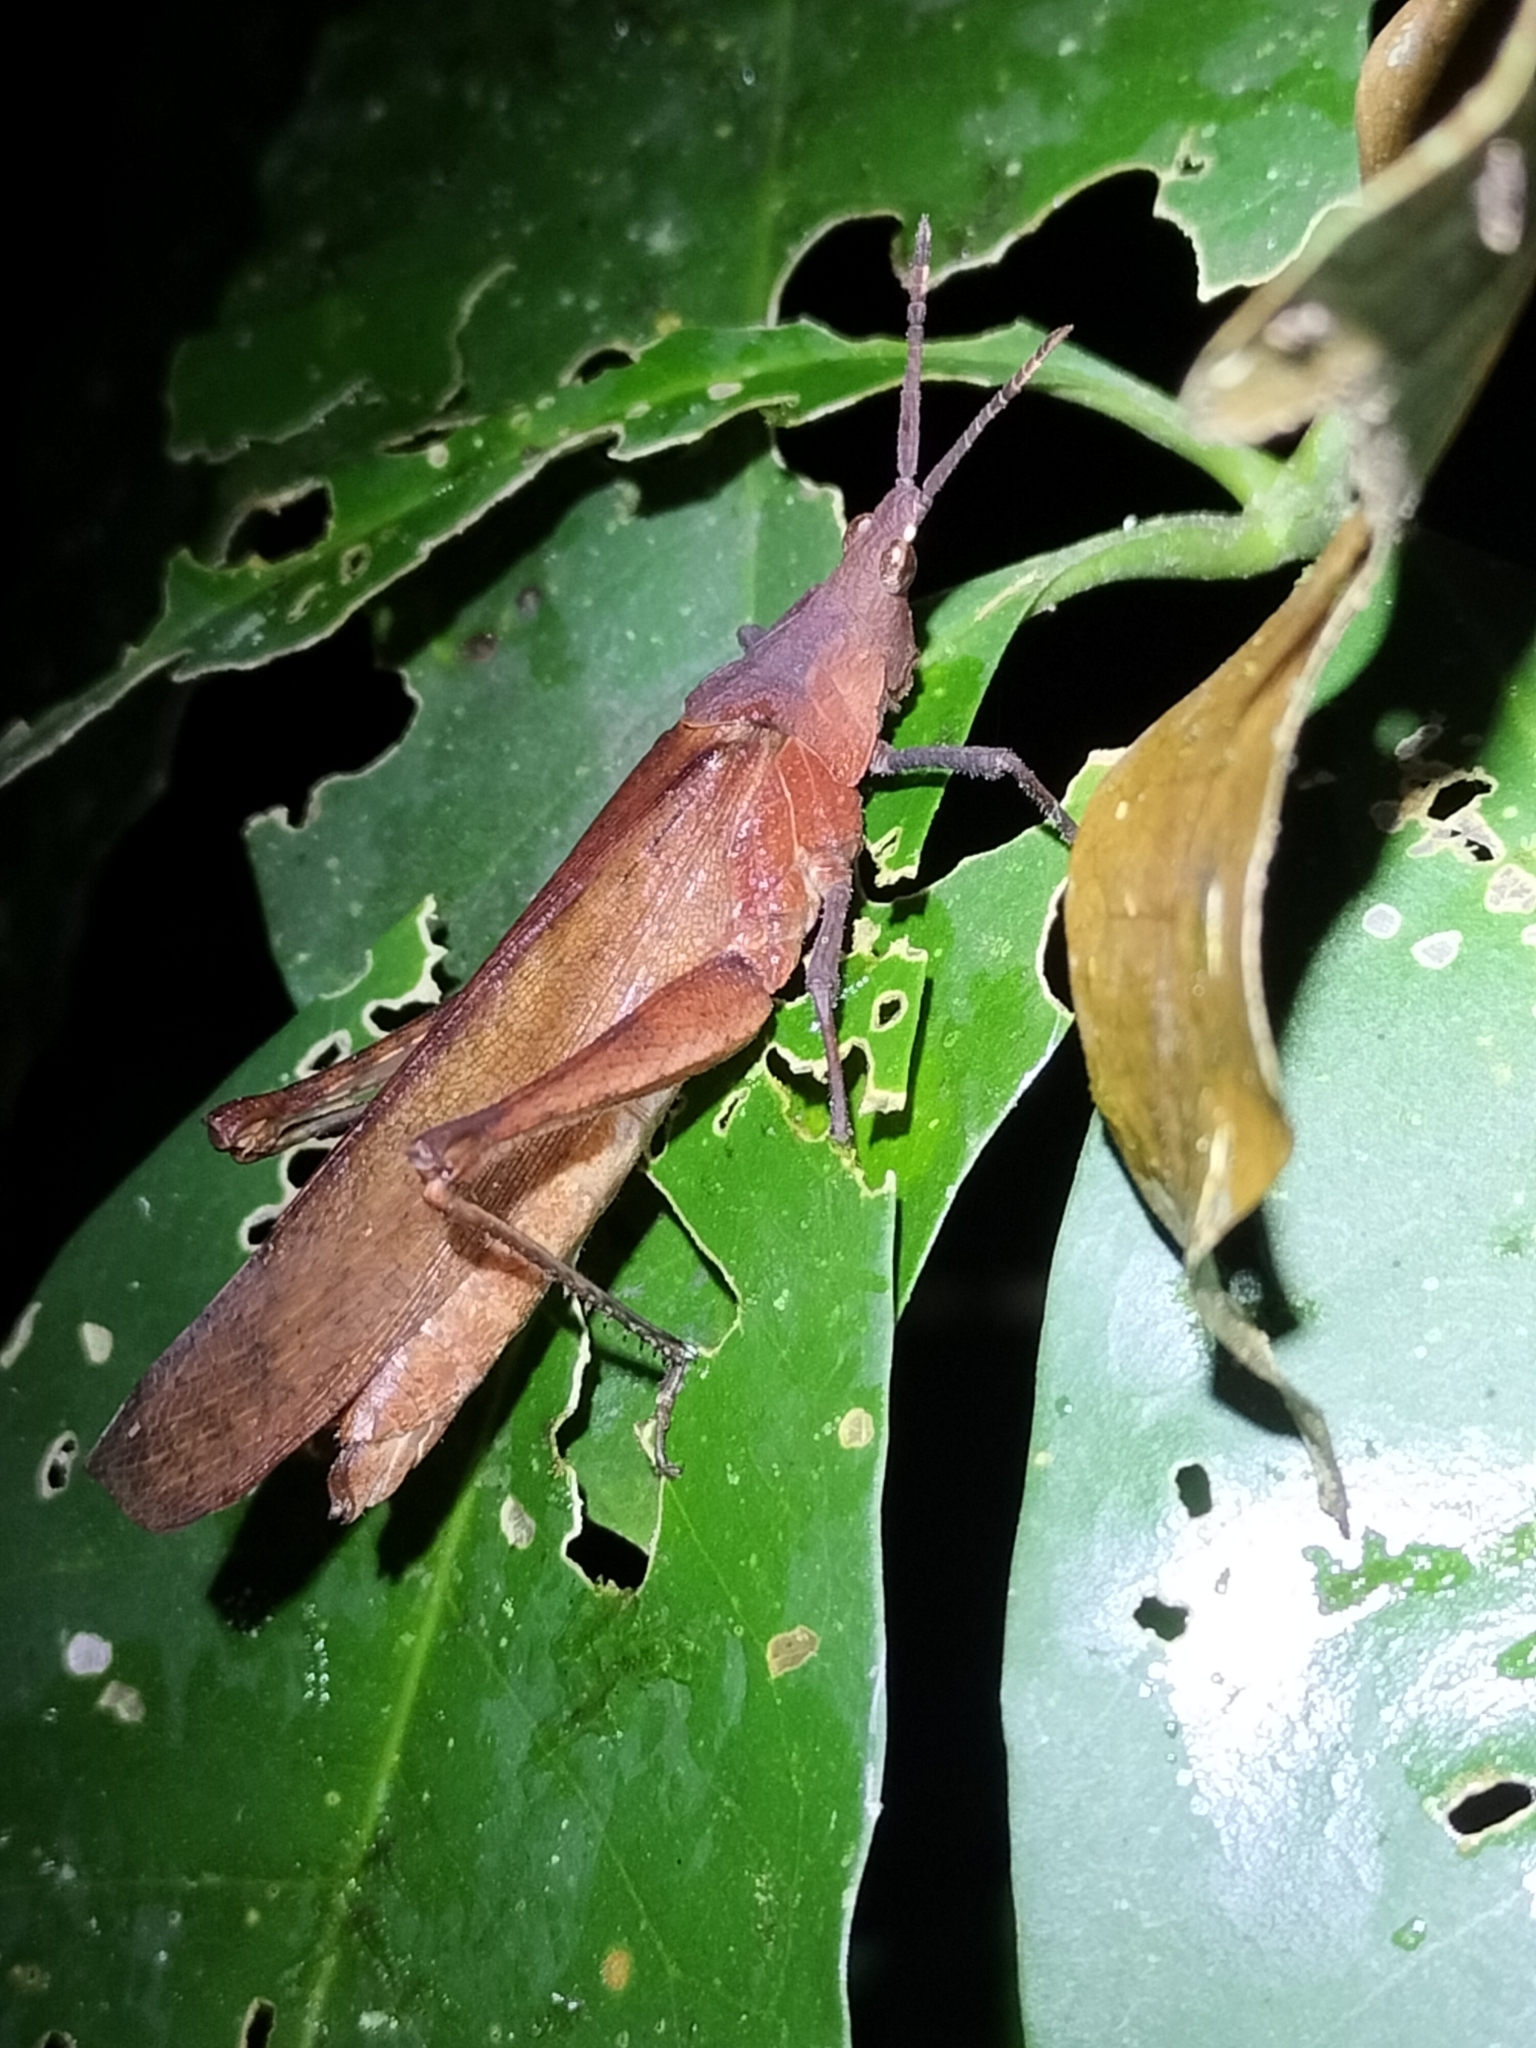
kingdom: Animalia
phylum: Arthropoda
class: Insecta
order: Orthoptera
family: Pyrgomorphidae
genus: Desmoptera
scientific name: Desmoptera truncatipennis
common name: Large forest pyrgomorph
